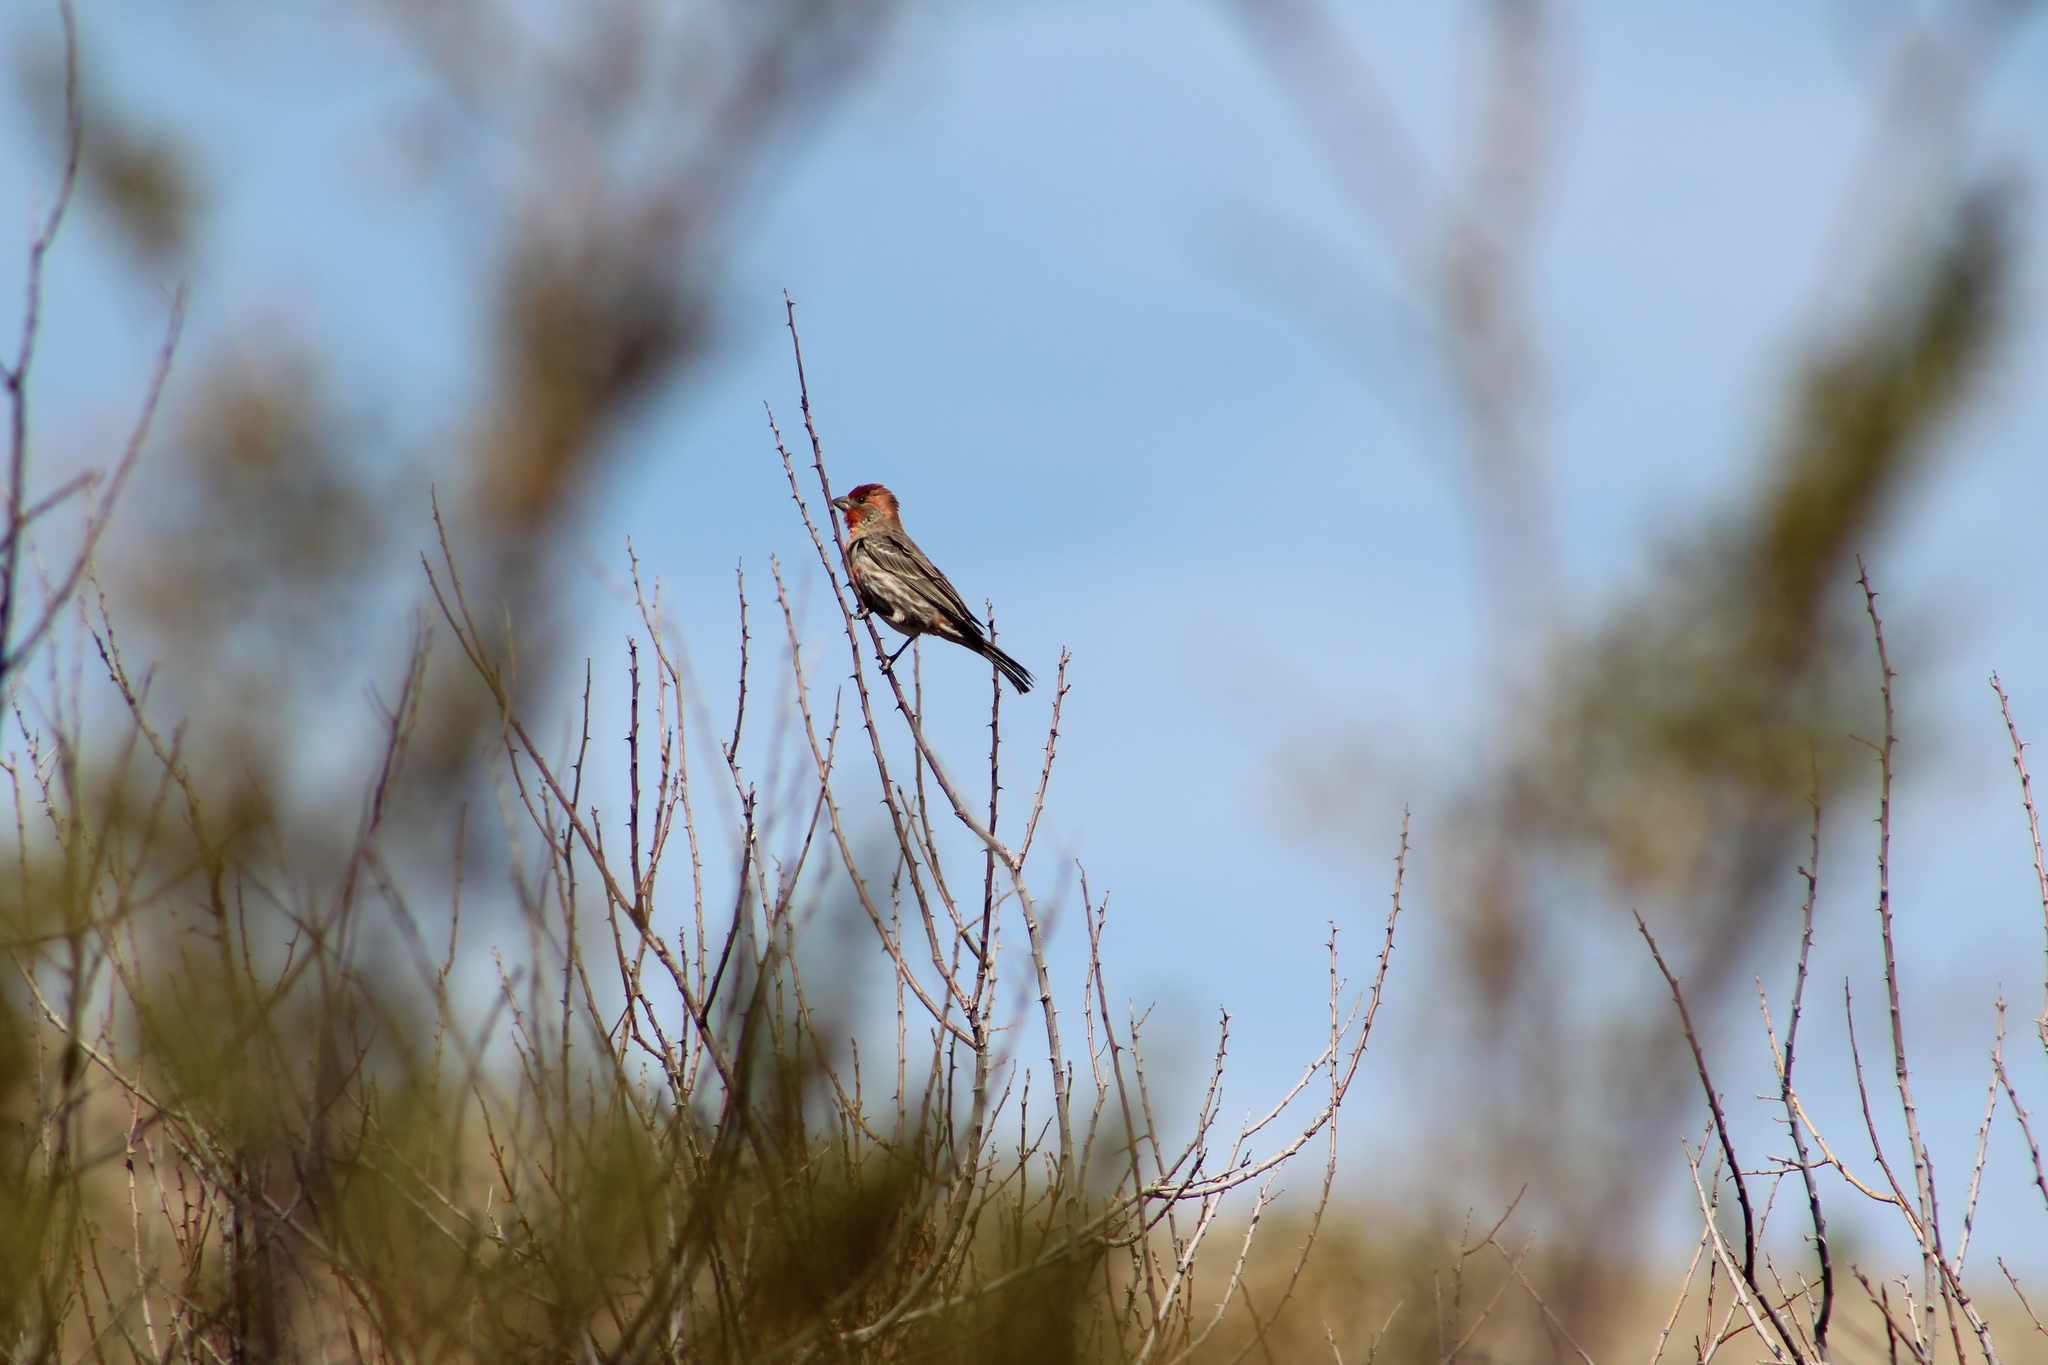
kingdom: Animalia
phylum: Chordata
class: Aves
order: Passeriformes
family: Fringillidae
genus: Haemorhous
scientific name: Haemorhous mexicanus
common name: House finch
